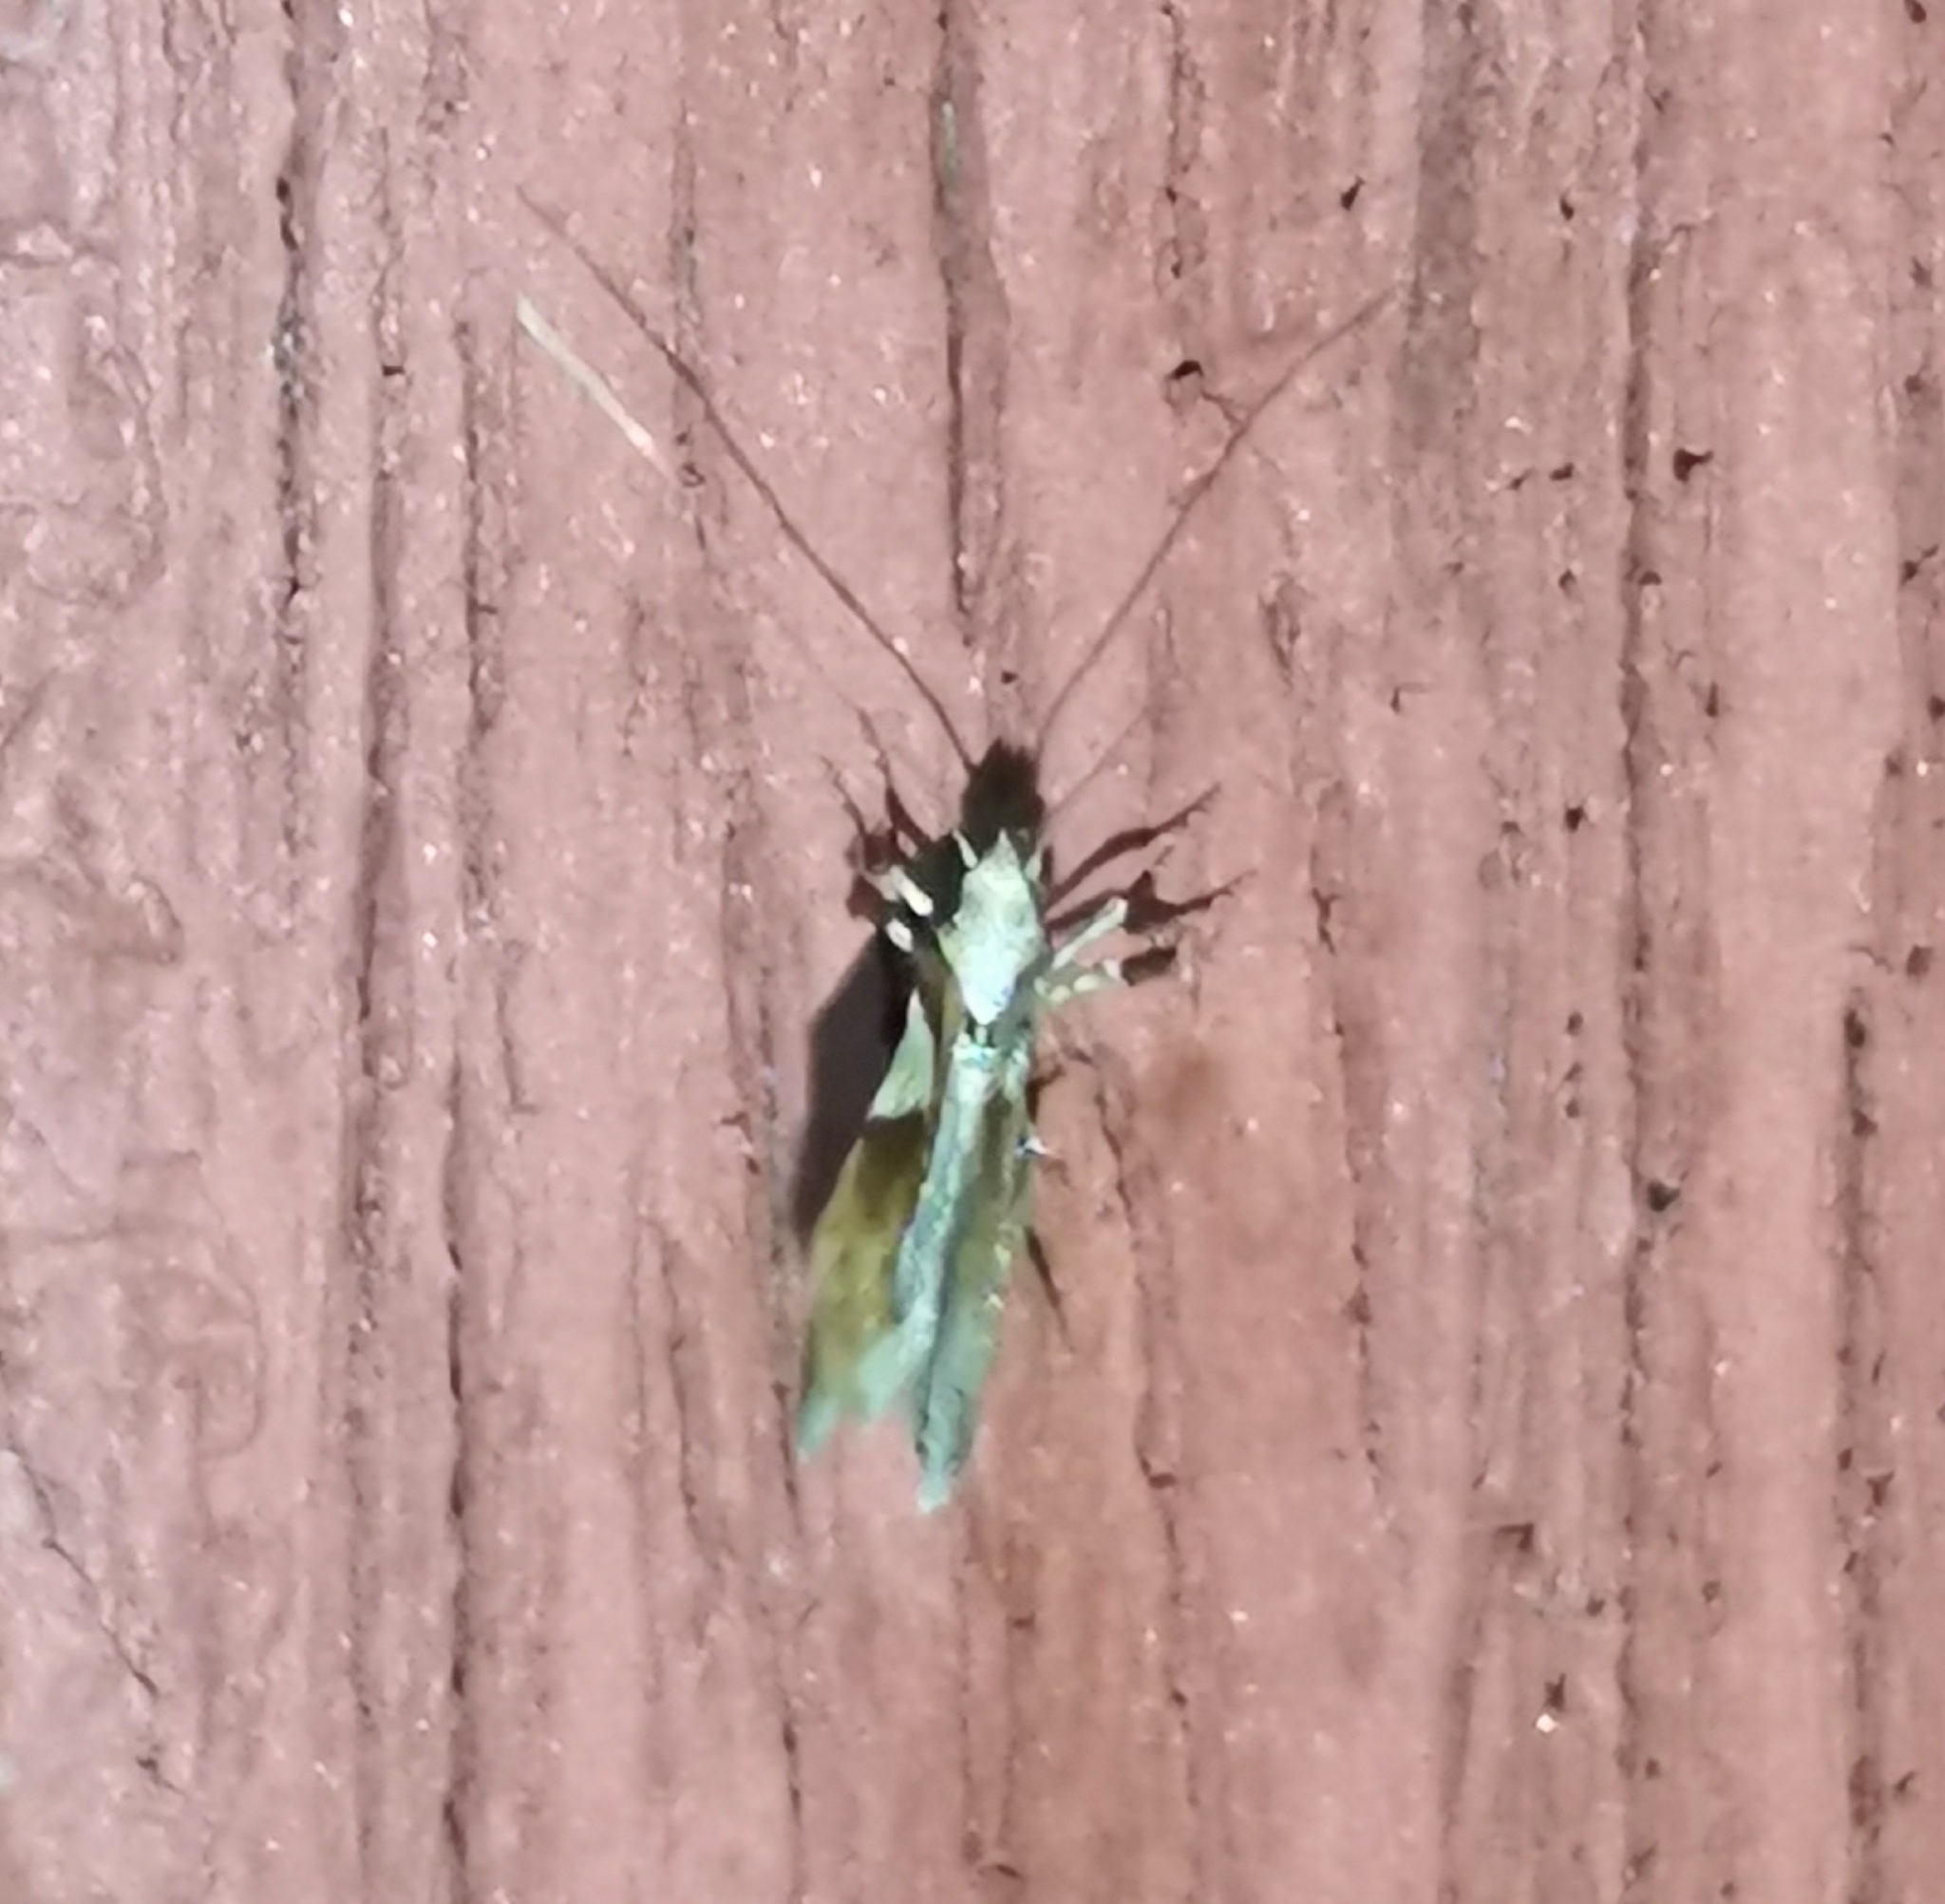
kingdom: Animalia
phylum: Arthropoda
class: Insecta
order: Lepidoptera
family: Gracillariidae
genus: Caloptilia
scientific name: Caloptilia stigmatella
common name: White-triangle slender
